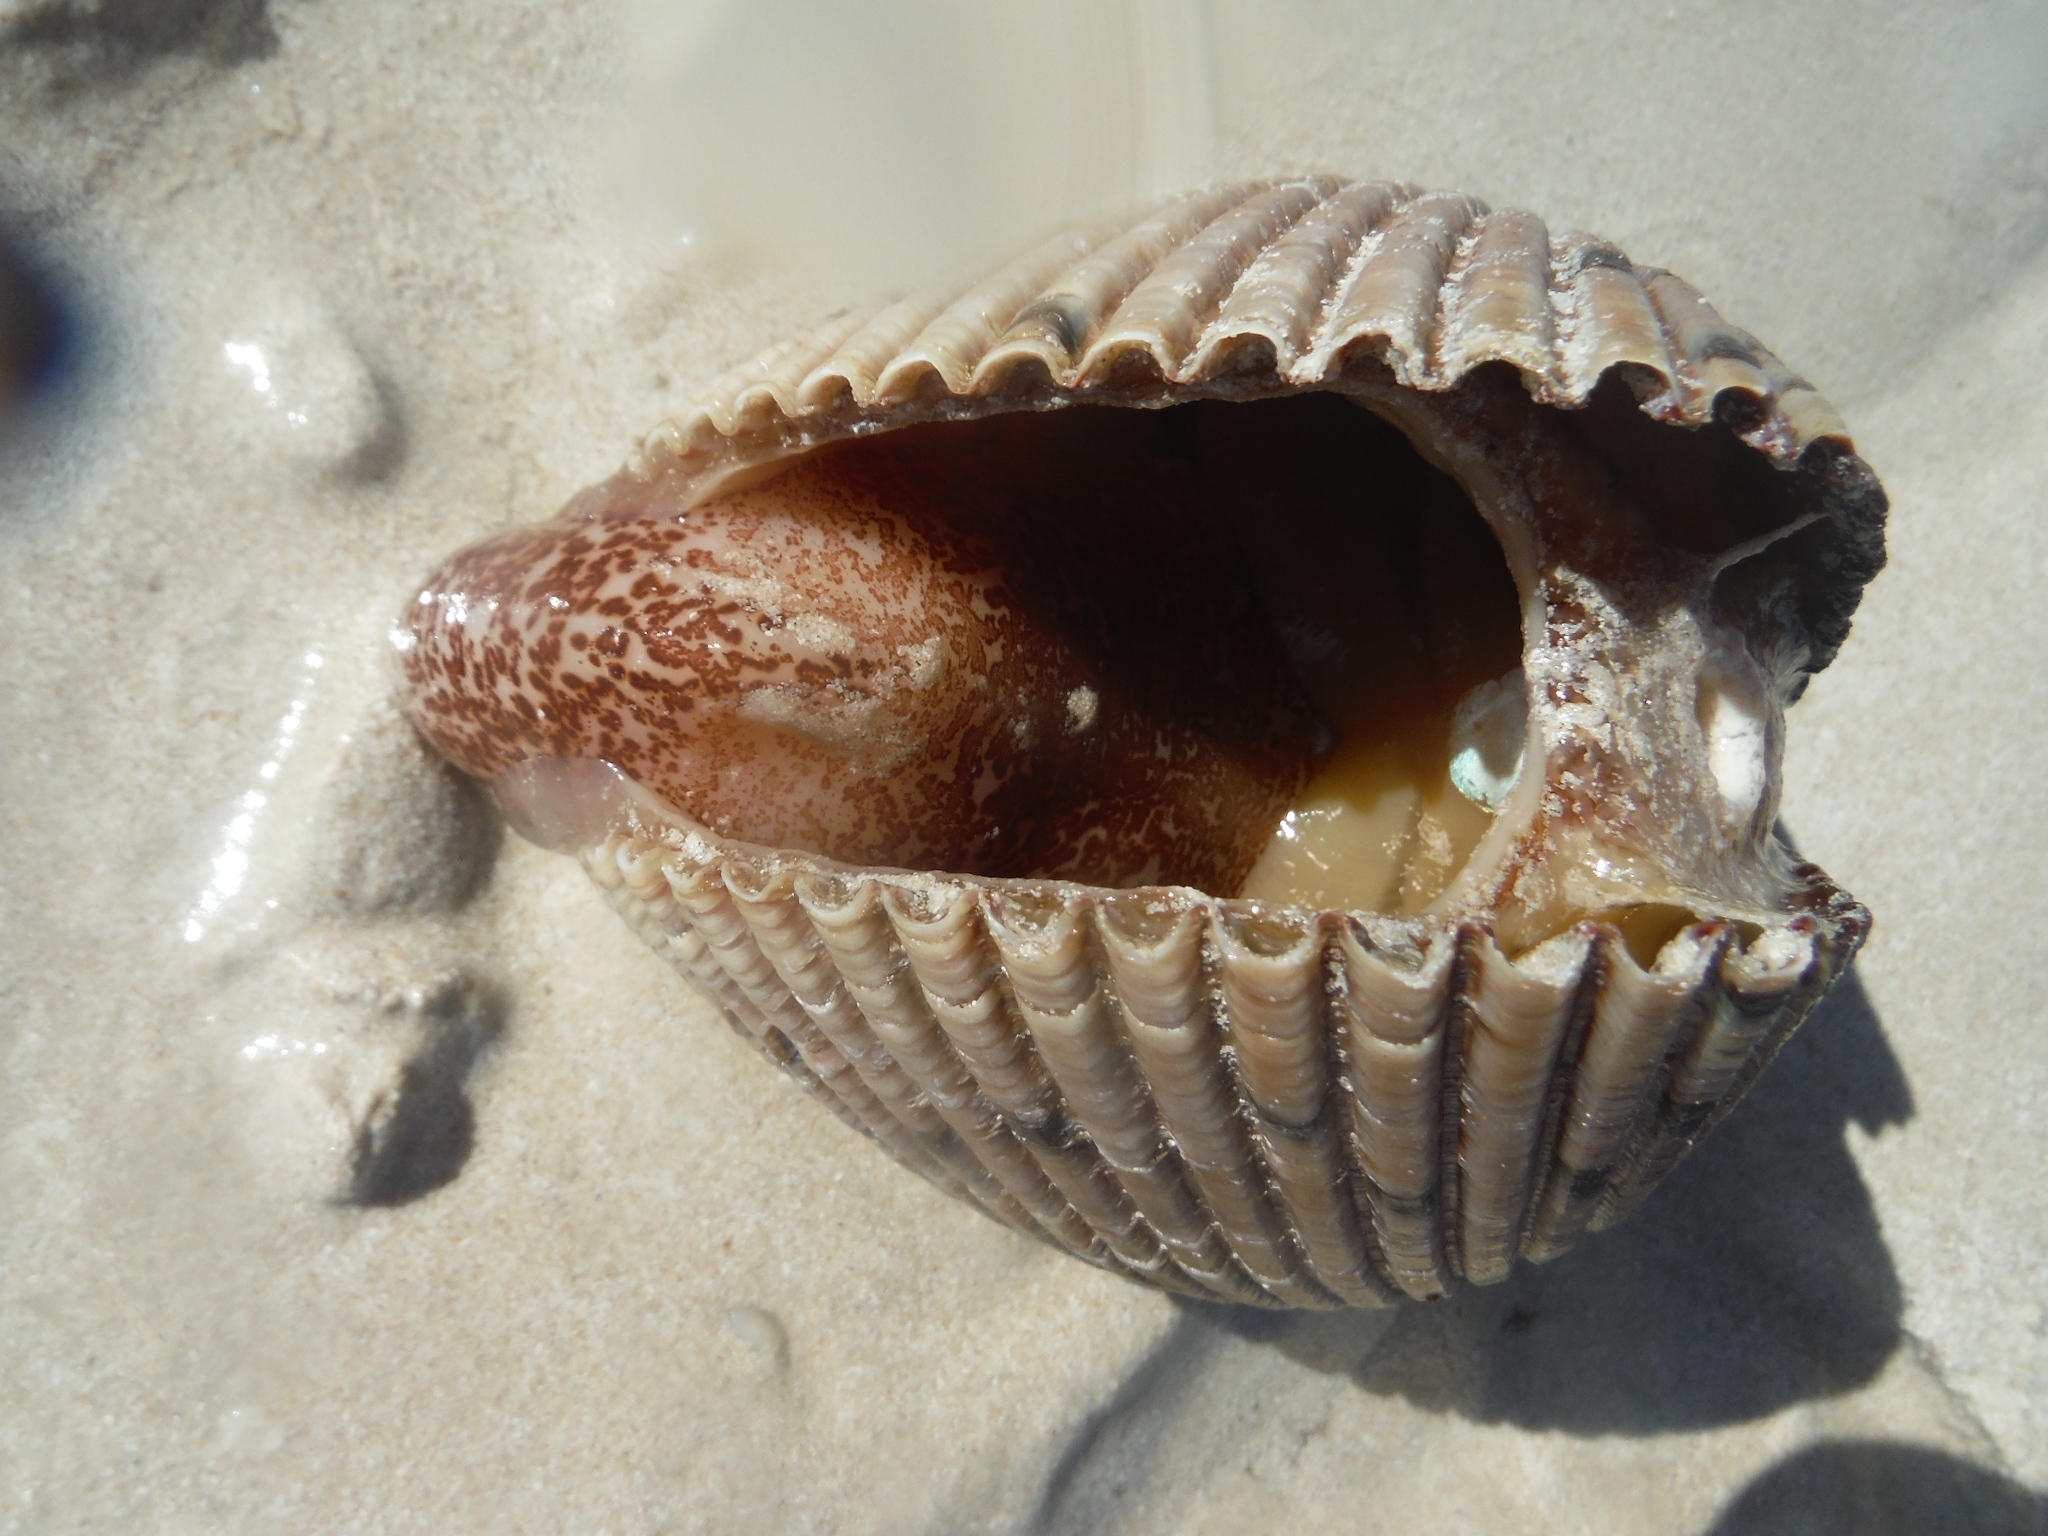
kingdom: Animalia
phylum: Mollusca
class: Bivalvia
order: Cardiida
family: Cardiidae
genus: Dinocardium
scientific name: Dinocardium robustum
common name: Atlantic giant cockle
